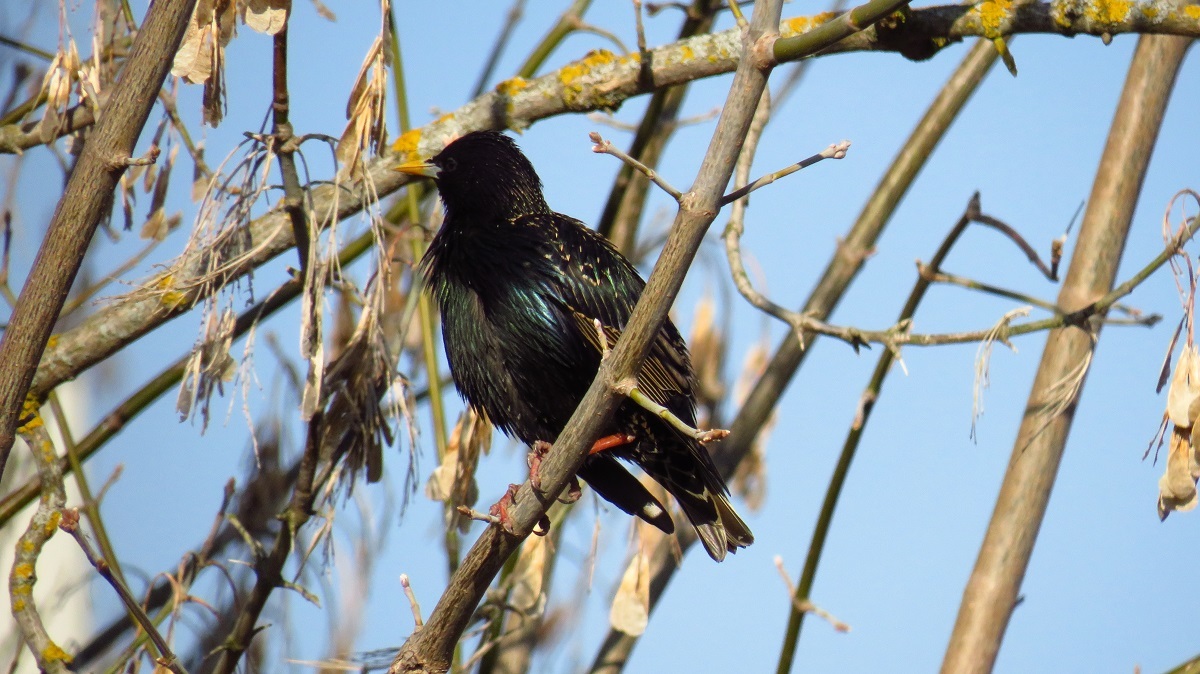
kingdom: Animalia
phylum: Chordata
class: Aves
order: Passeriformes
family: Sturnidae
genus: Sturnus
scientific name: Sturnus vulgaris
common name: Common starling
